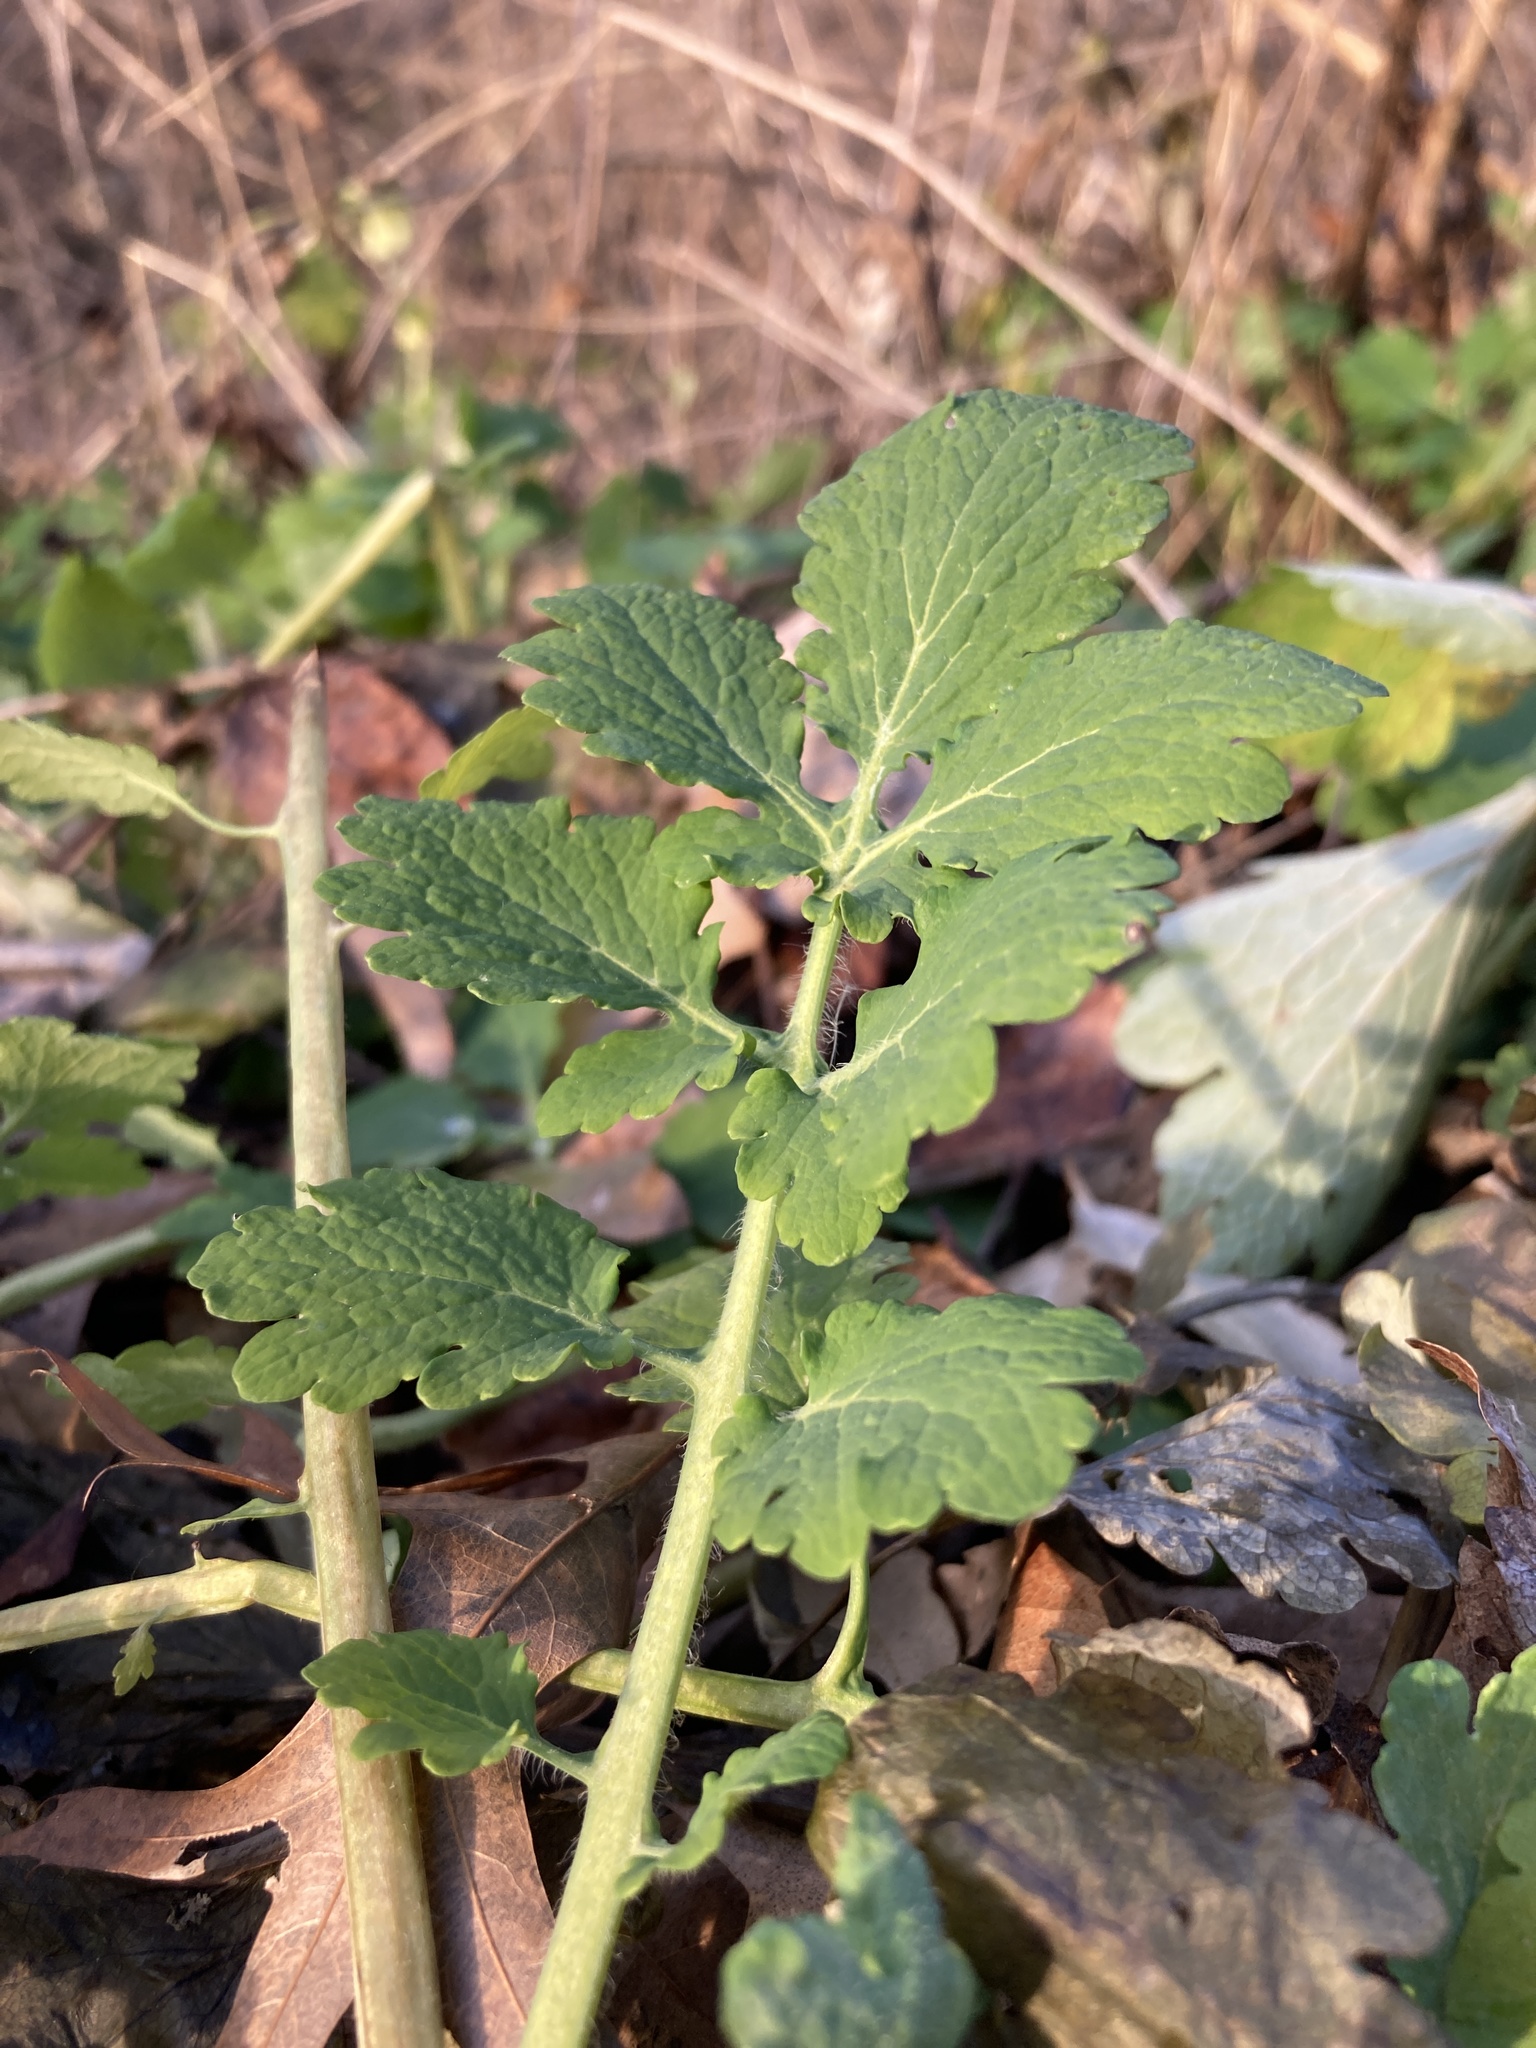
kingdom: Plantae
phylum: Tracheophyta
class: Magnoliopsida
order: Ranunculales
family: Papaveraceae
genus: Chelidonium
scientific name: Chelidonium majus
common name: Greater celandine
